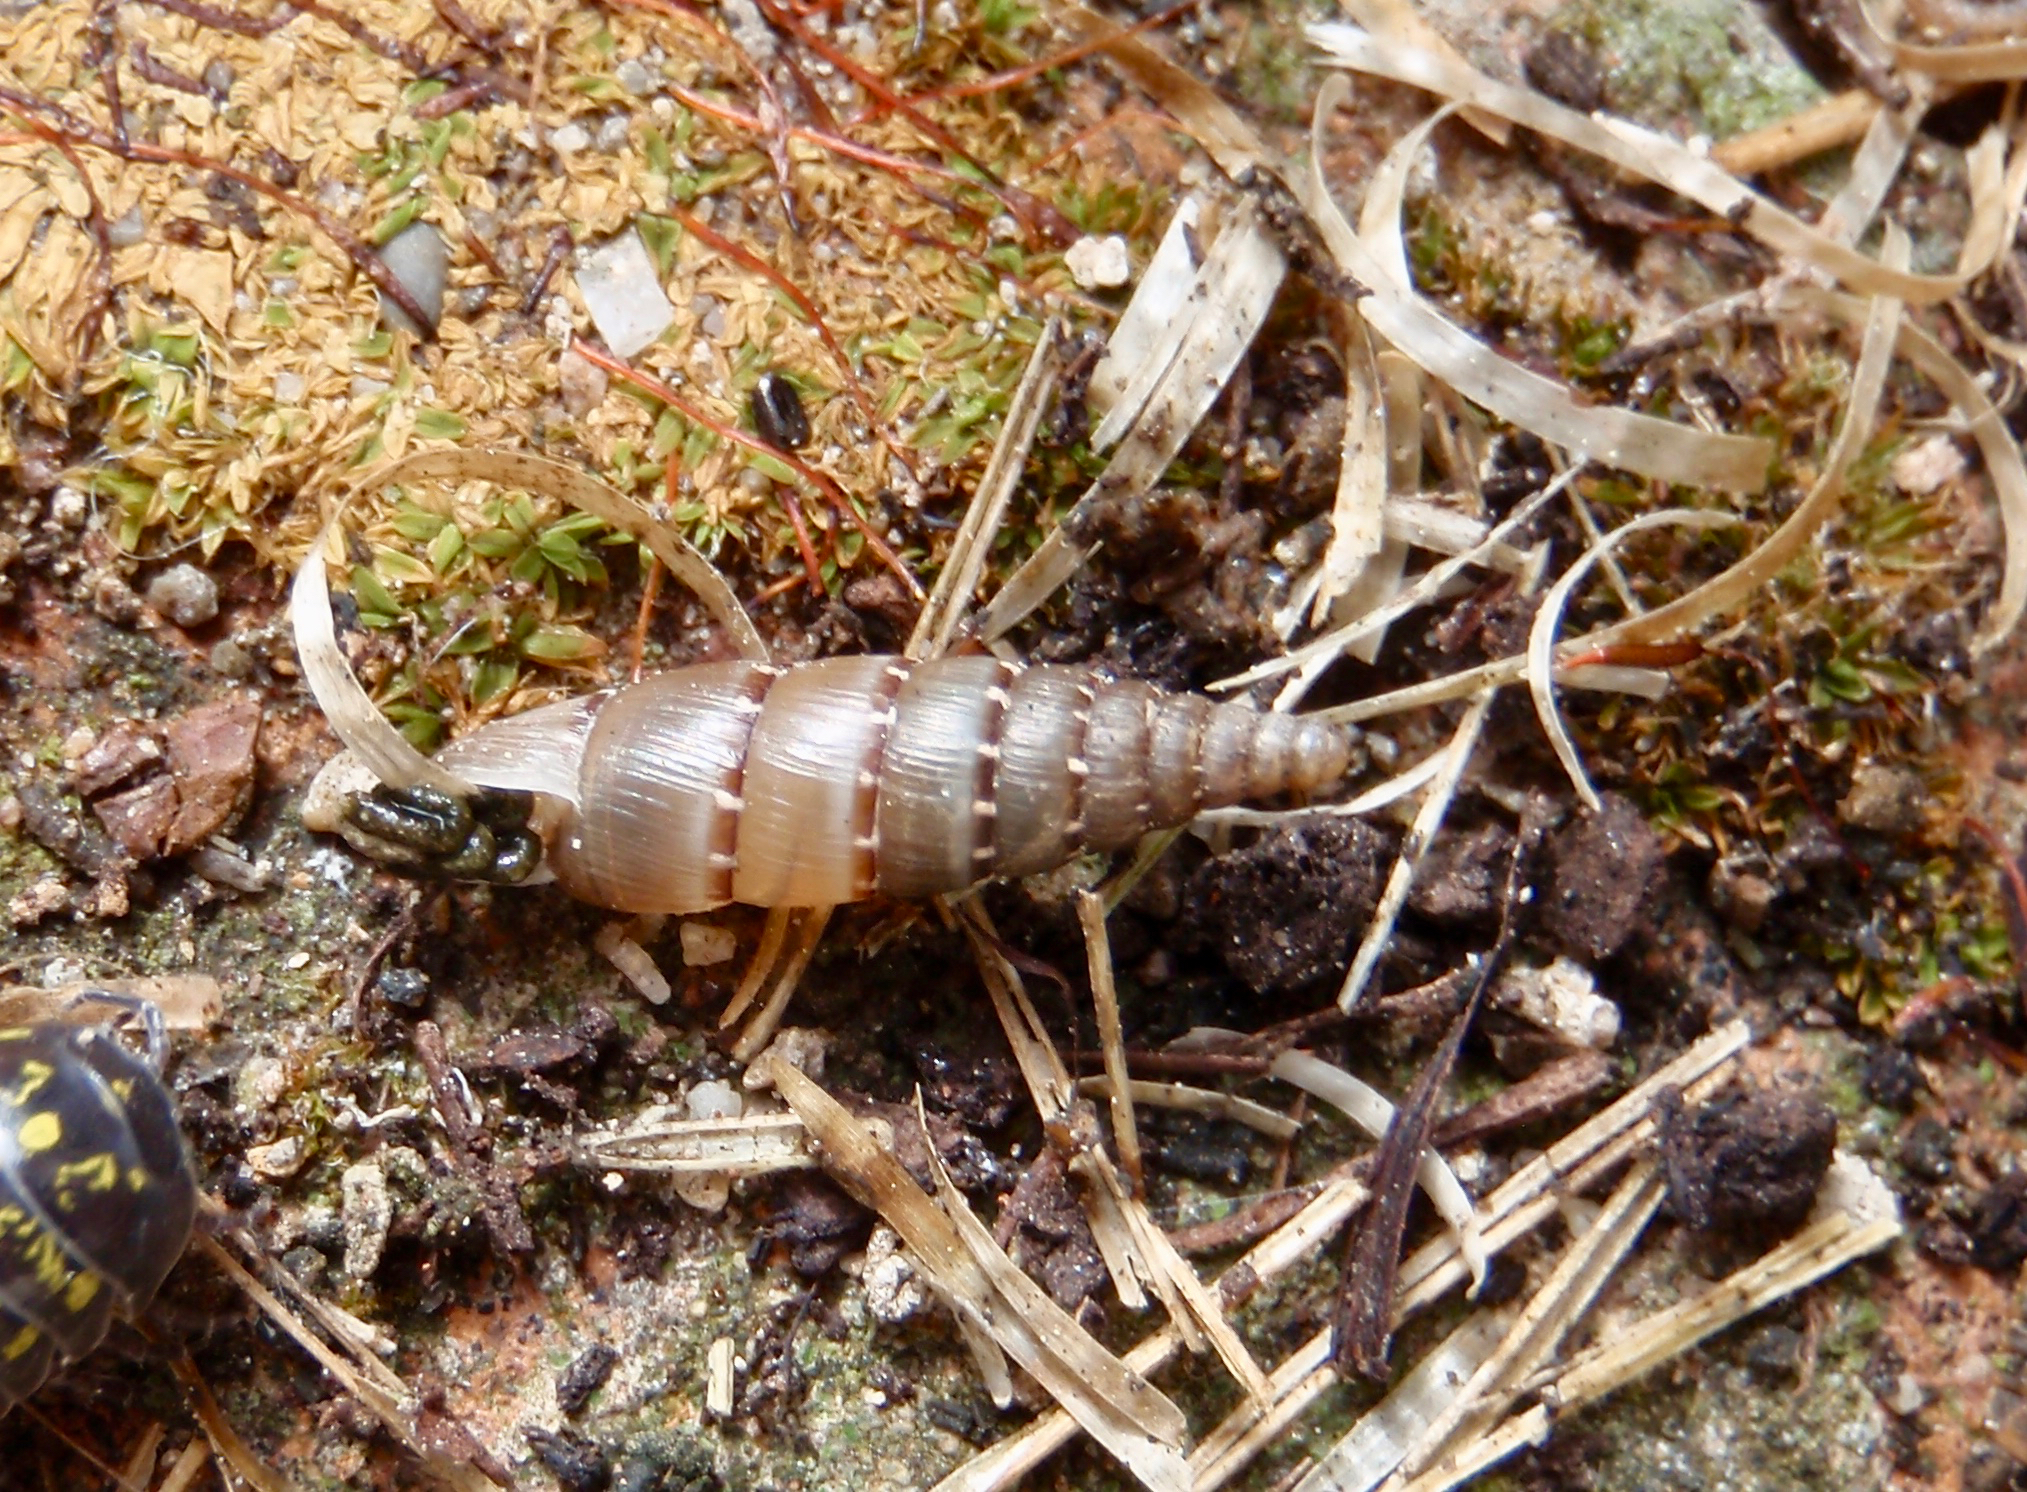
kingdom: Animalia
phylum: Mollusca
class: Gastropoda
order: Stylommatophora
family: Clausiliidae
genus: Papillifera
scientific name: Papillifera papillaris
